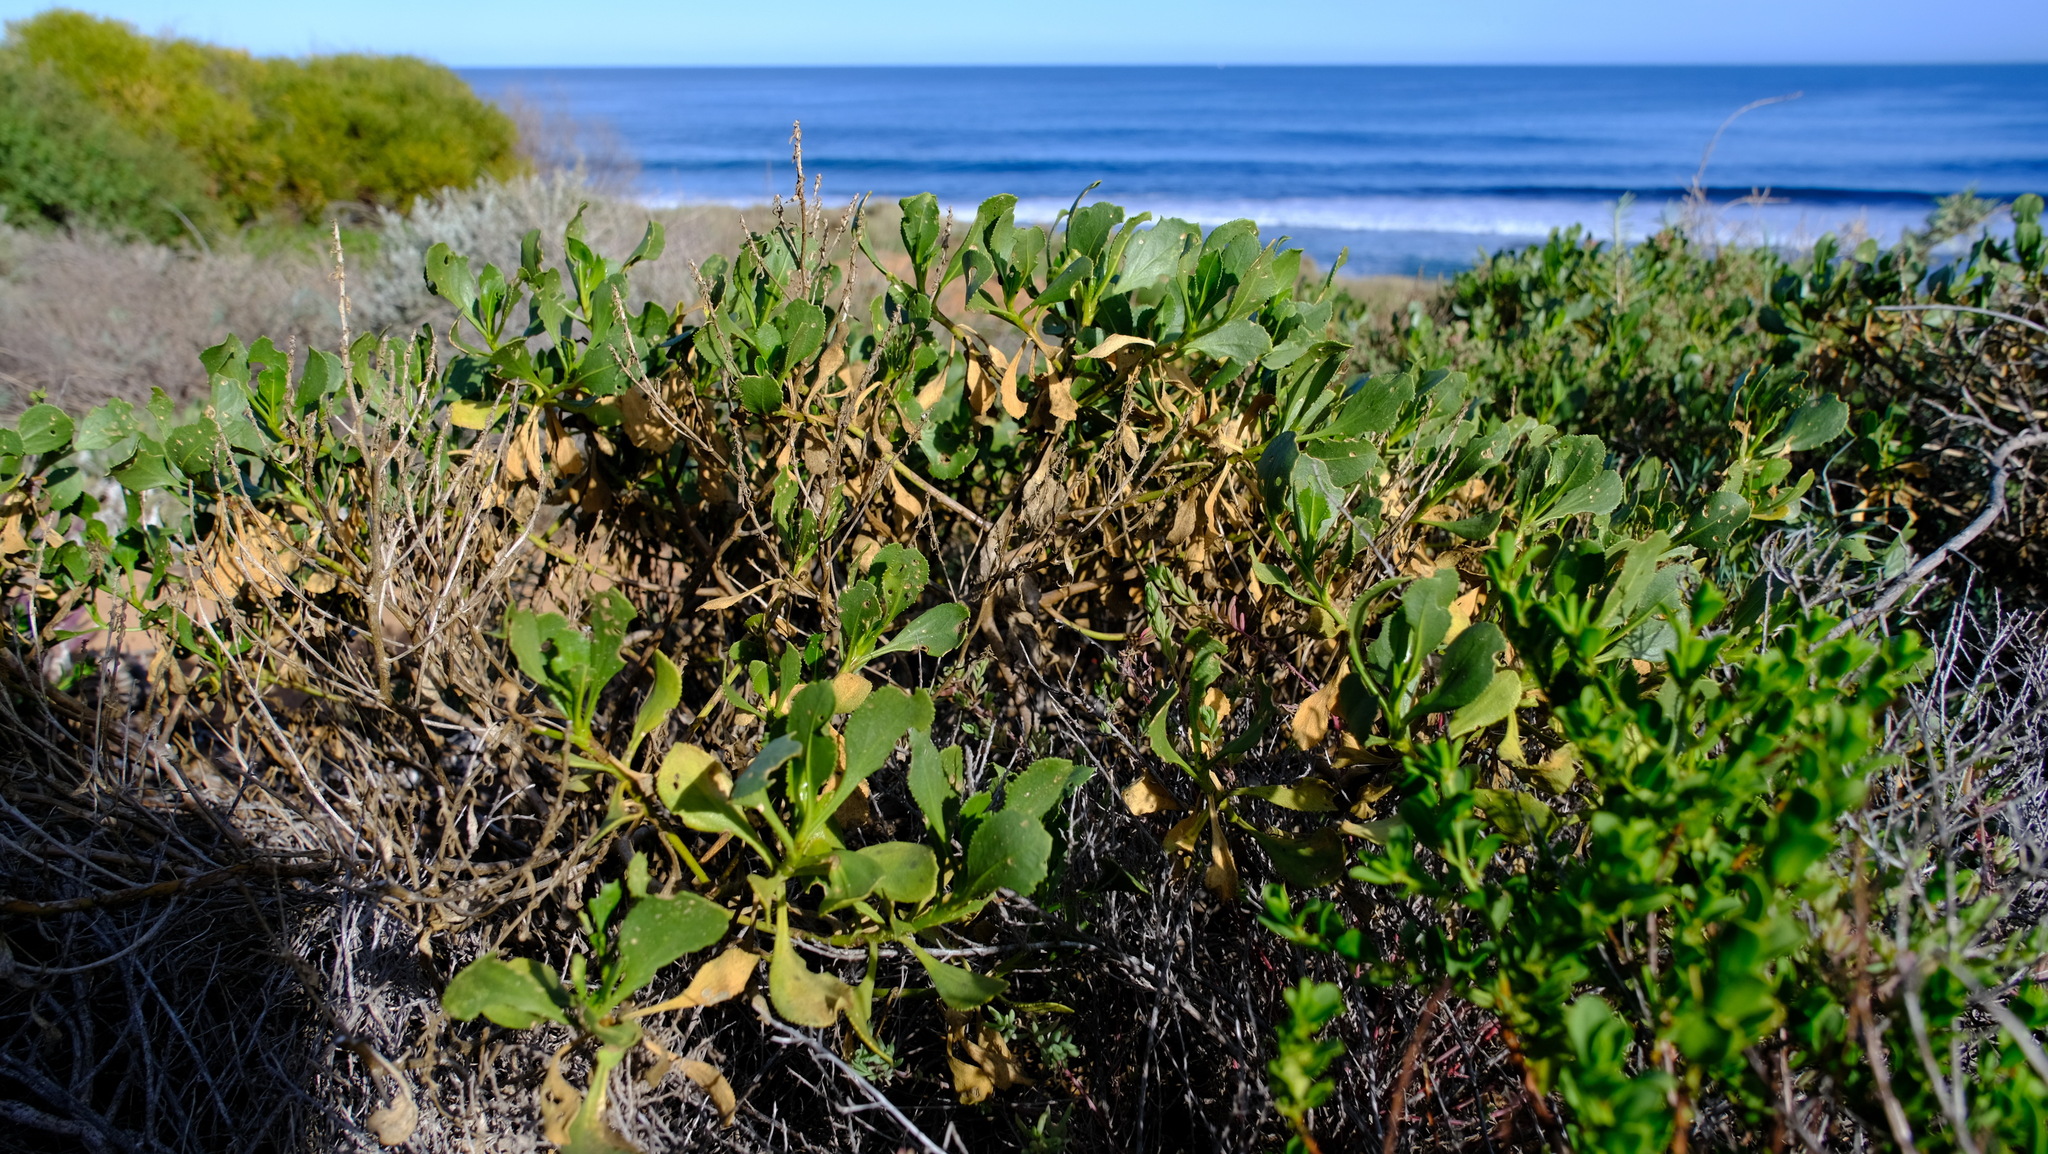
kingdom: Plantae
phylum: Tracheophyta
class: Magnoliopsida
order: Asterales
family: Goodeniaceae
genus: Scaevola
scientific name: Scaevola crassifolia
